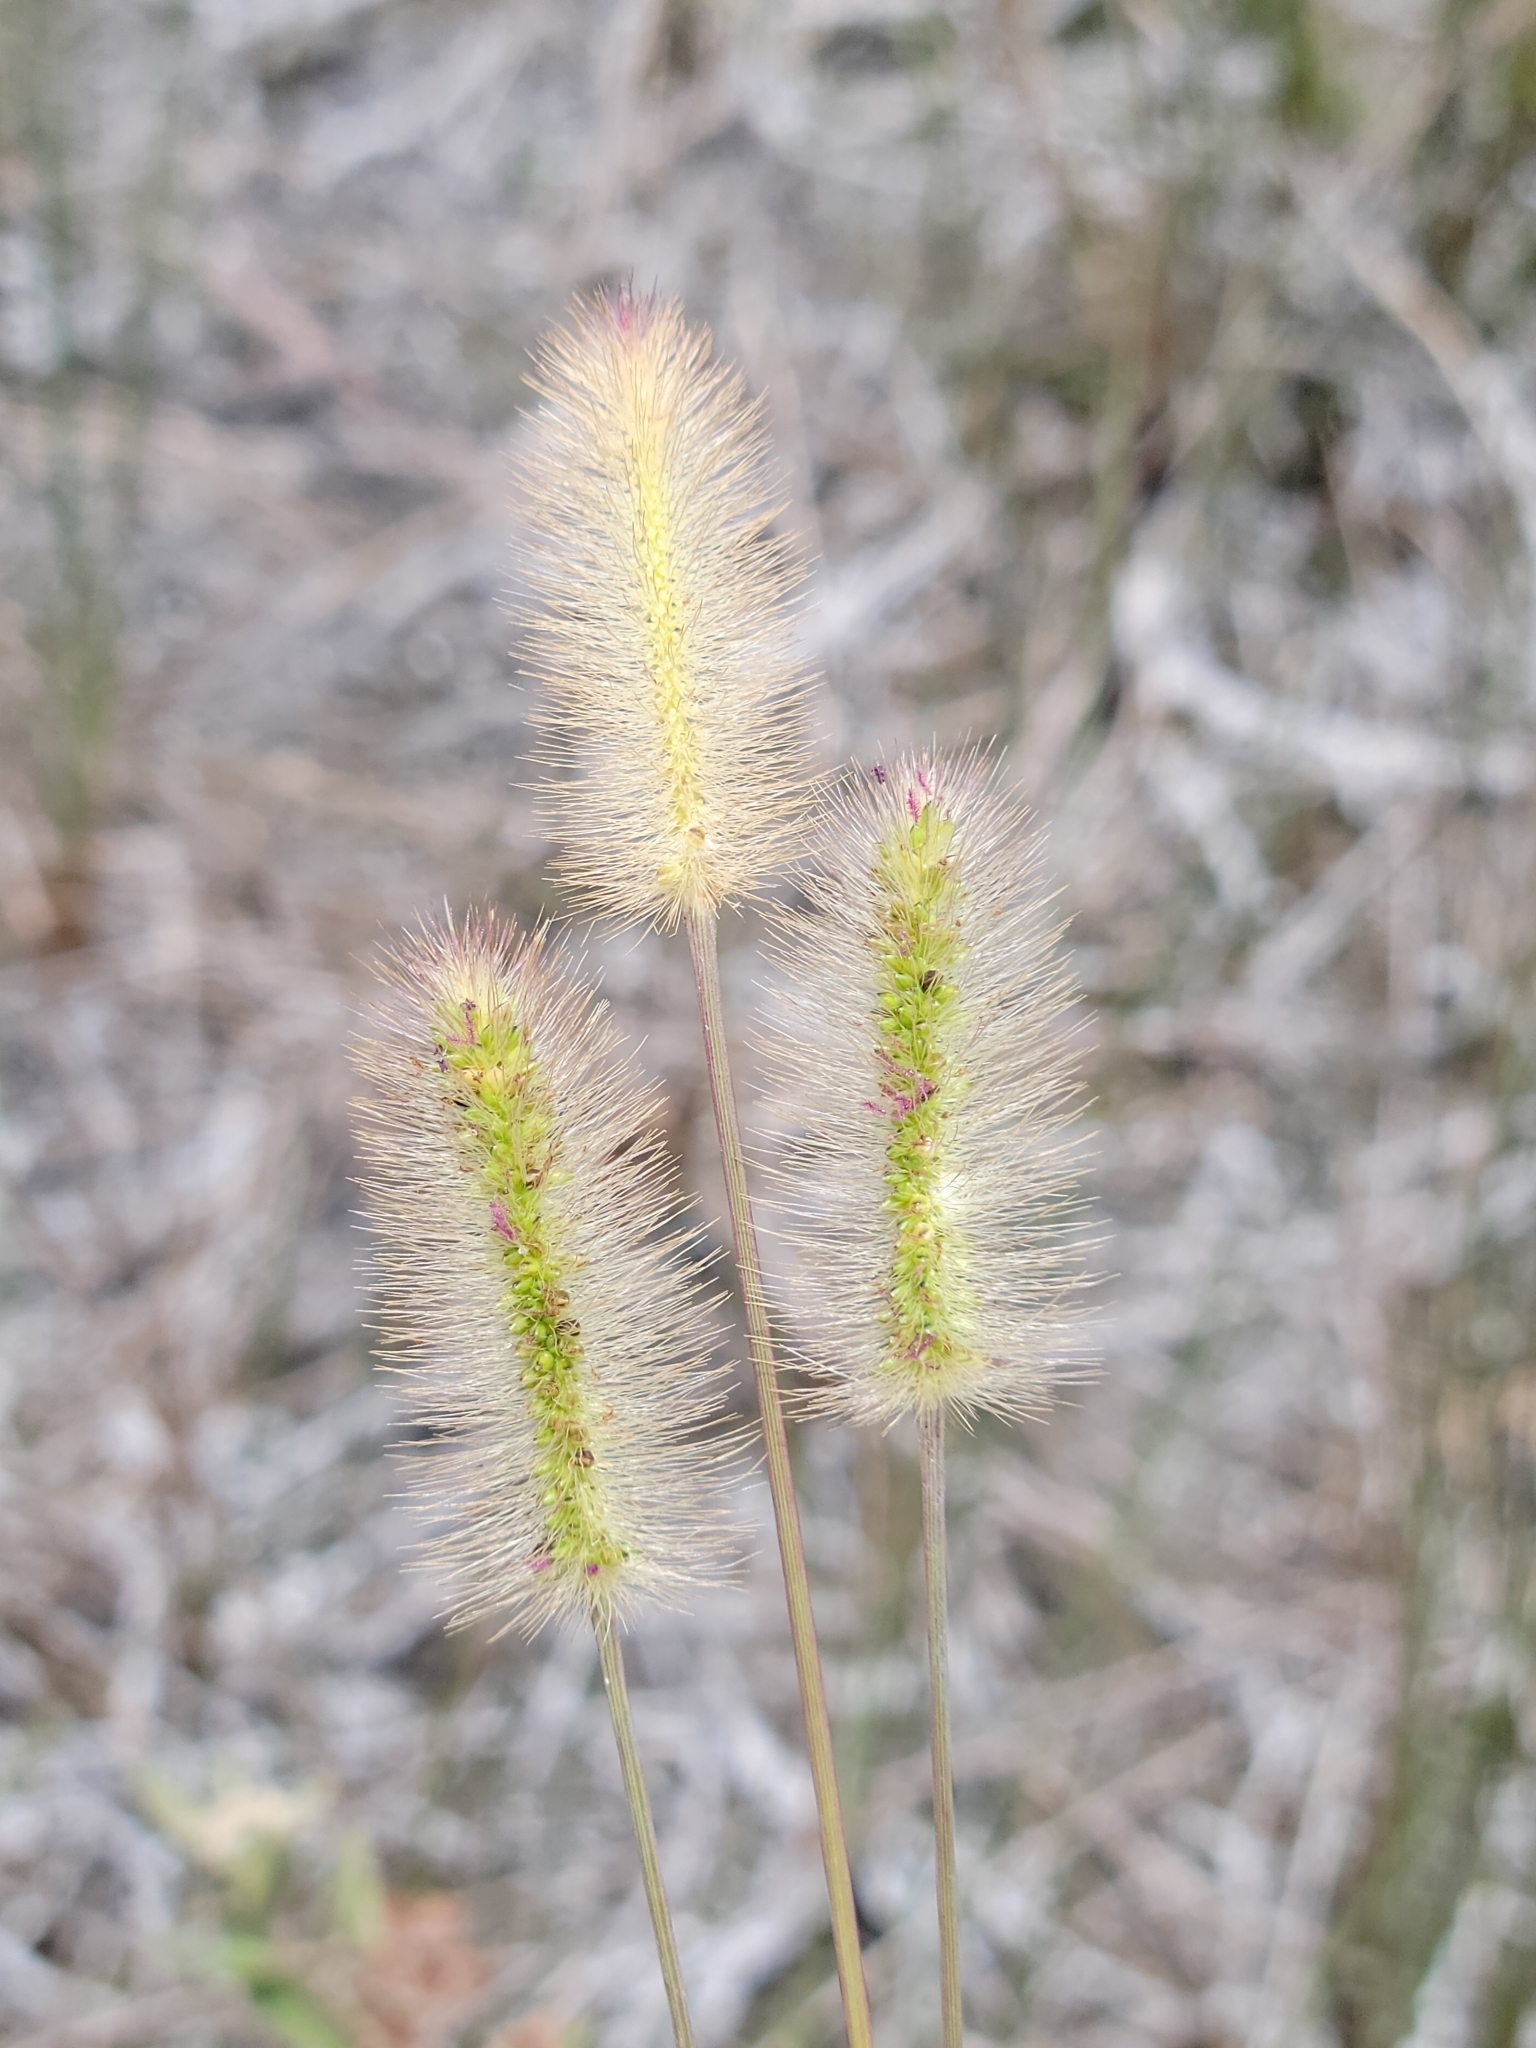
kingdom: Plantae
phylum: Tracheophyta
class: Liliopsida
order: Poales
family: Poaceae
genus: Setaria
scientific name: Setaria parviflora
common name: Knotroot bristle-grass
